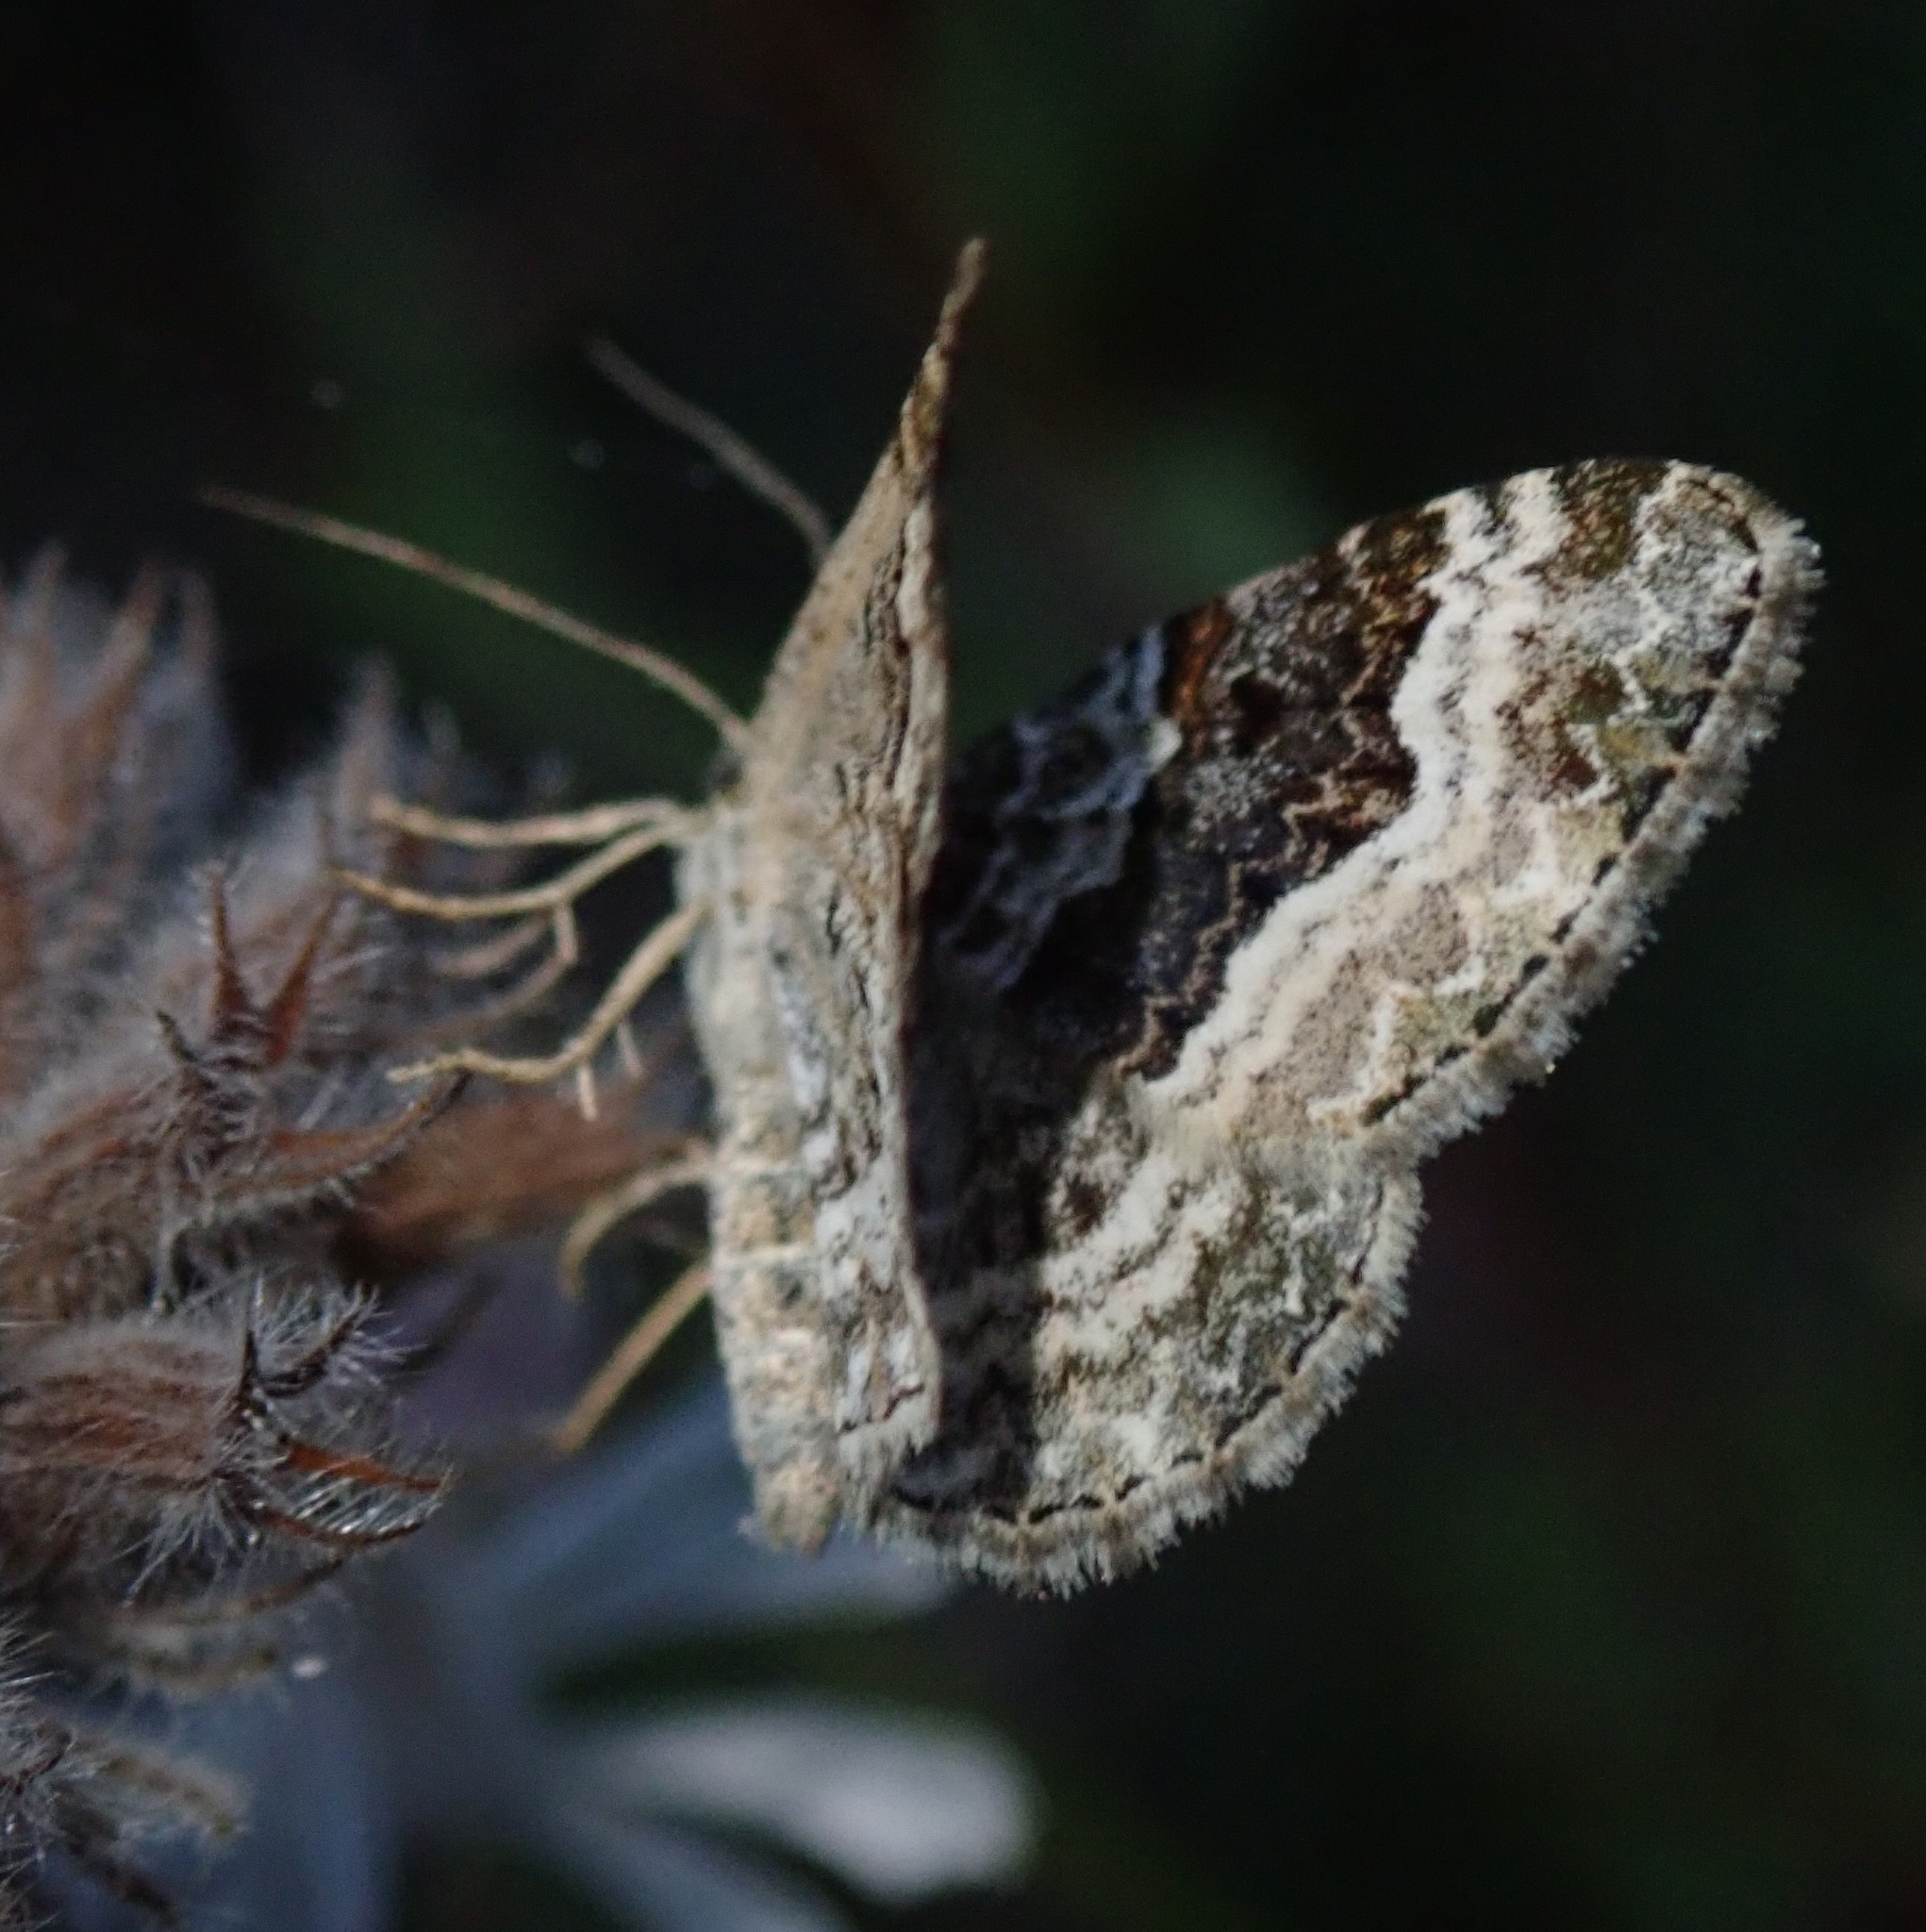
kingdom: Animalia
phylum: Arthropoda
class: Insecta
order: Lepidoptera
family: Geometridae
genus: Epirrhoe
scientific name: Epirrhoe alternata
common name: Common carpet
